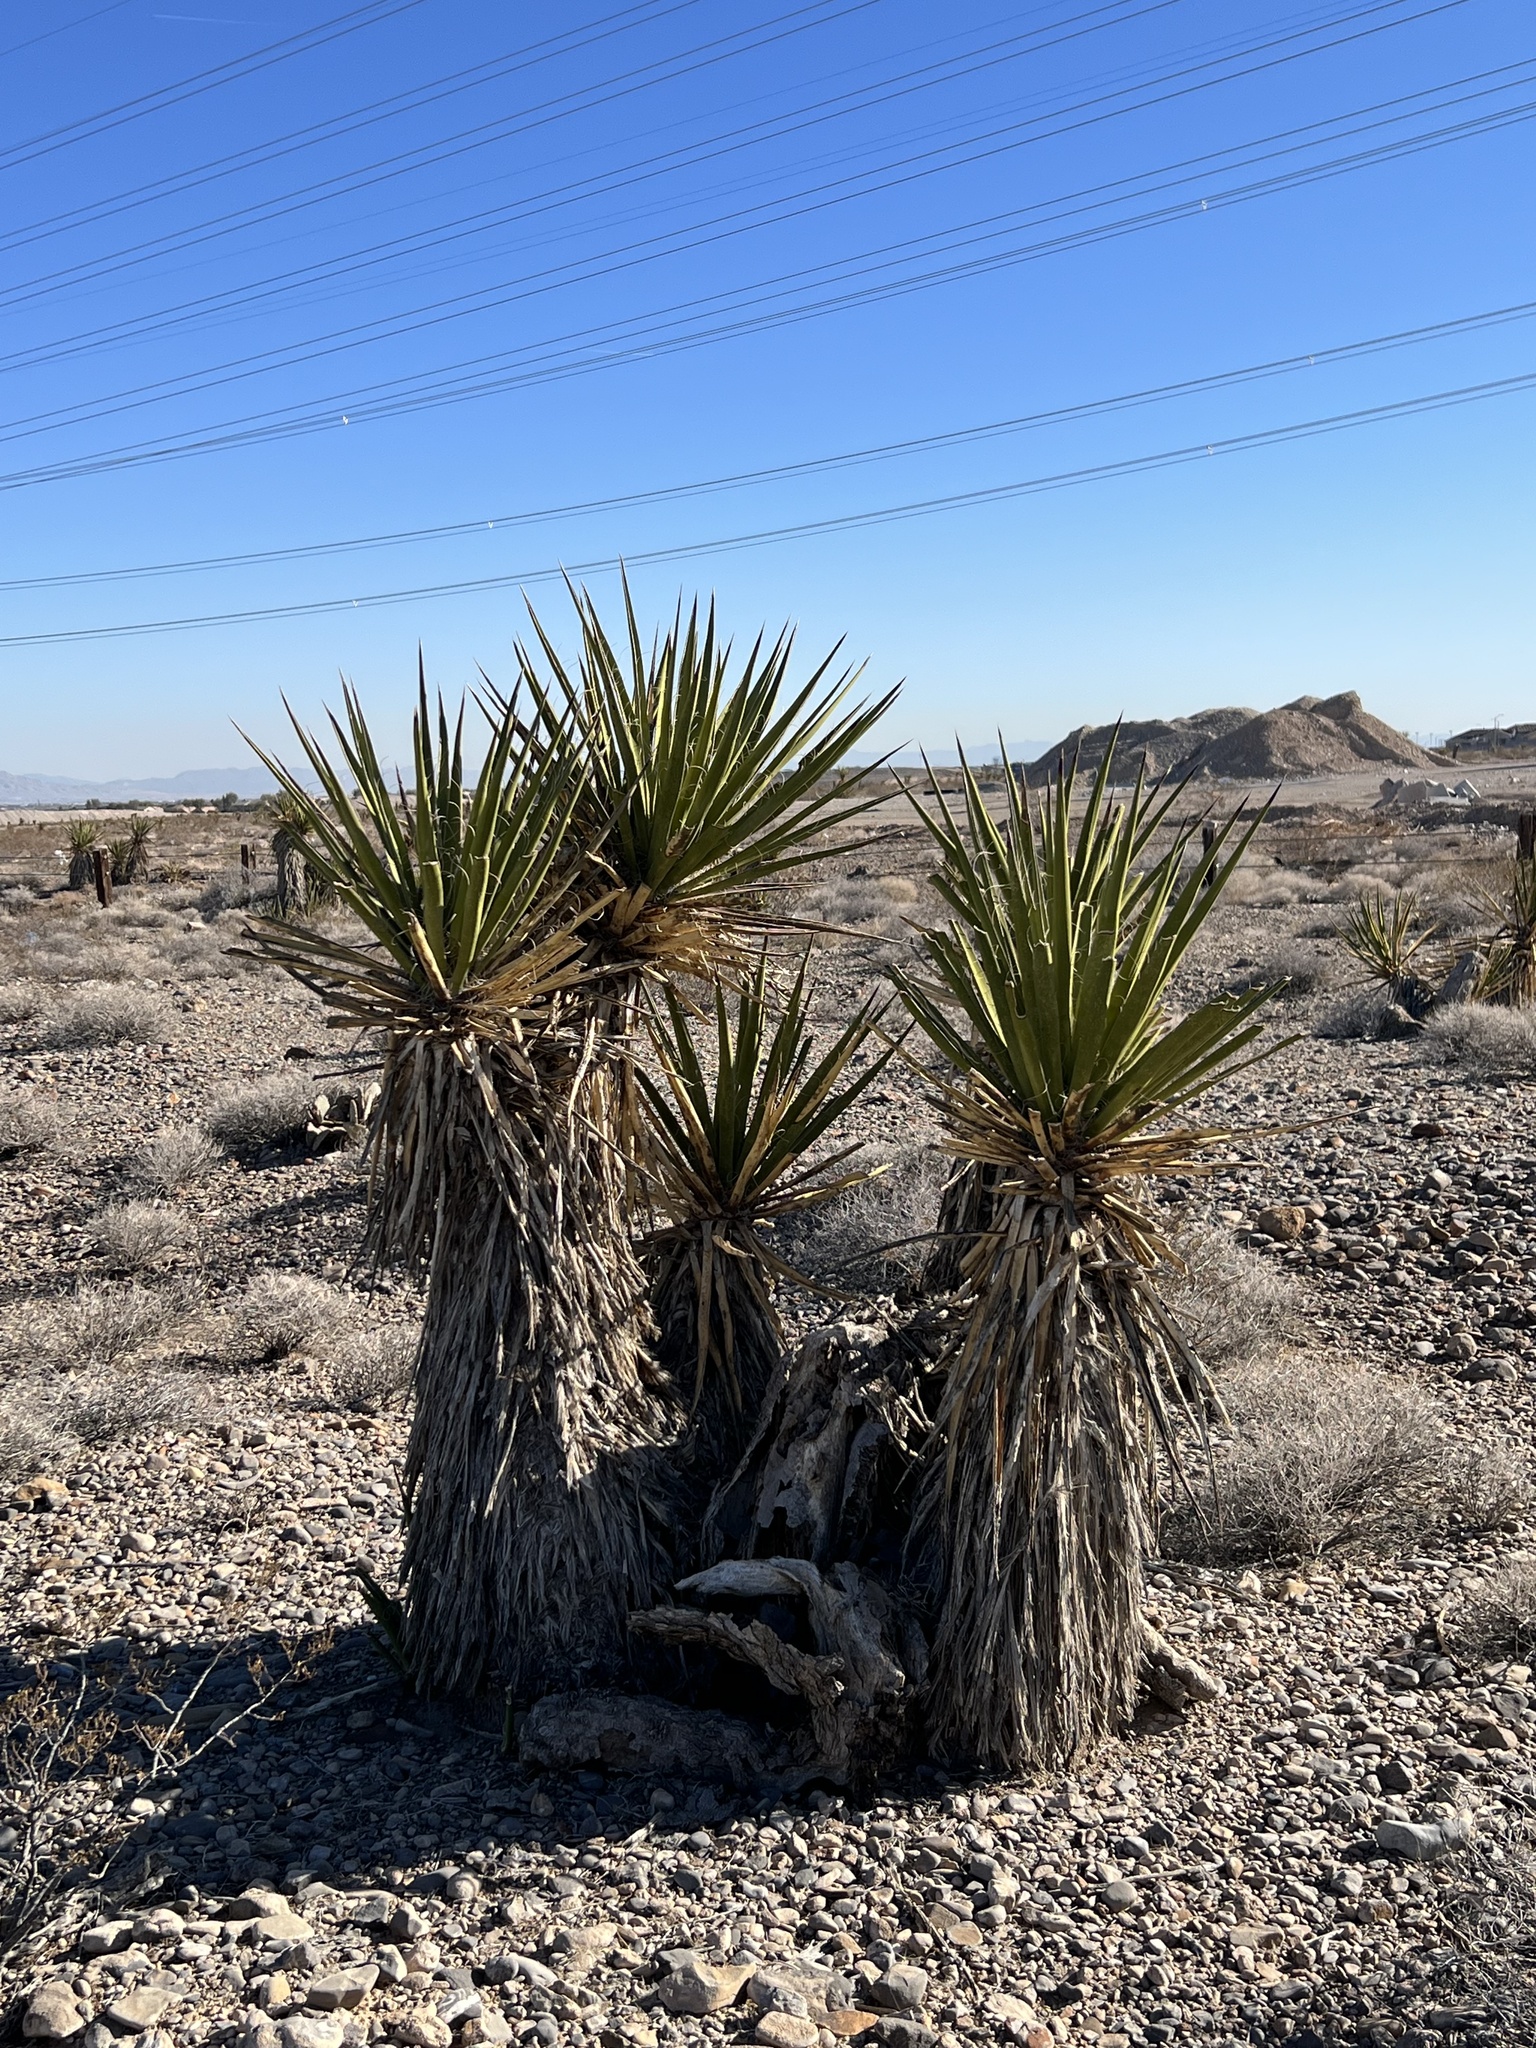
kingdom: Plantae
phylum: Tracheophyta
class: Liliopsida
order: Asparagales
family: Asparagaceae
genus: Yucca
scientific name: Yucca schidigera
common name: Mojave yucca
